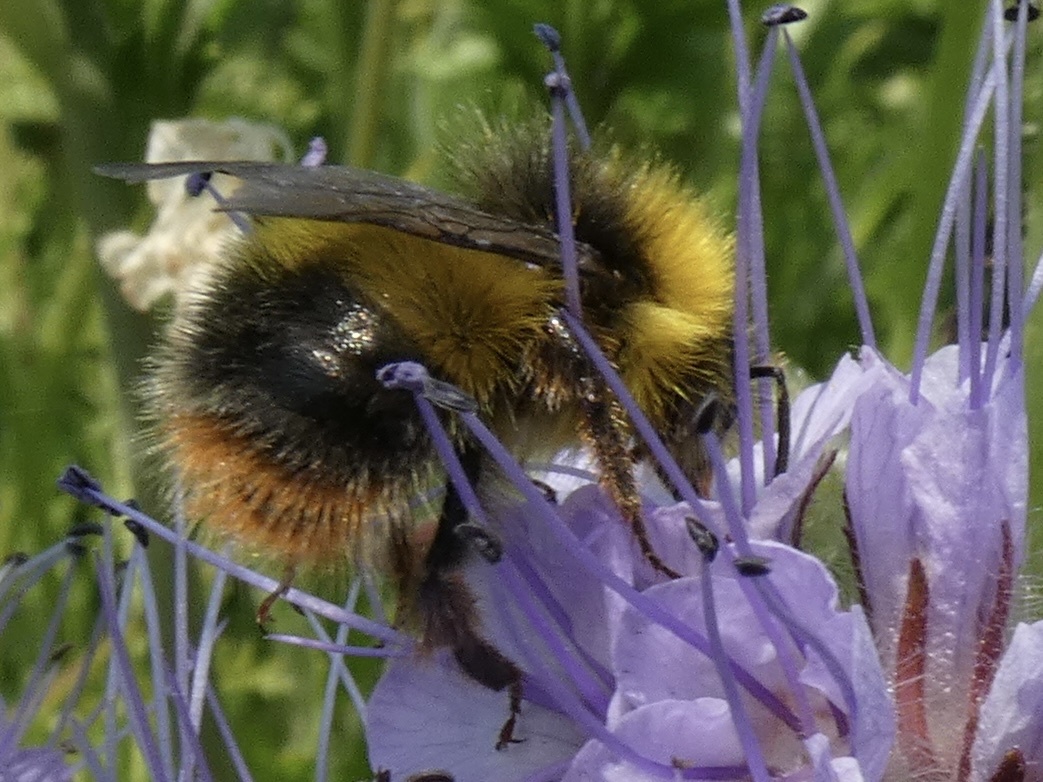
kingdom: Animalia
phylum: Arthropoda
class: Insecta
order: Hymenoptera
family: Apidae
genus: Bombus
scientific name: Bombus pratorum
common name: Early humble-bee
